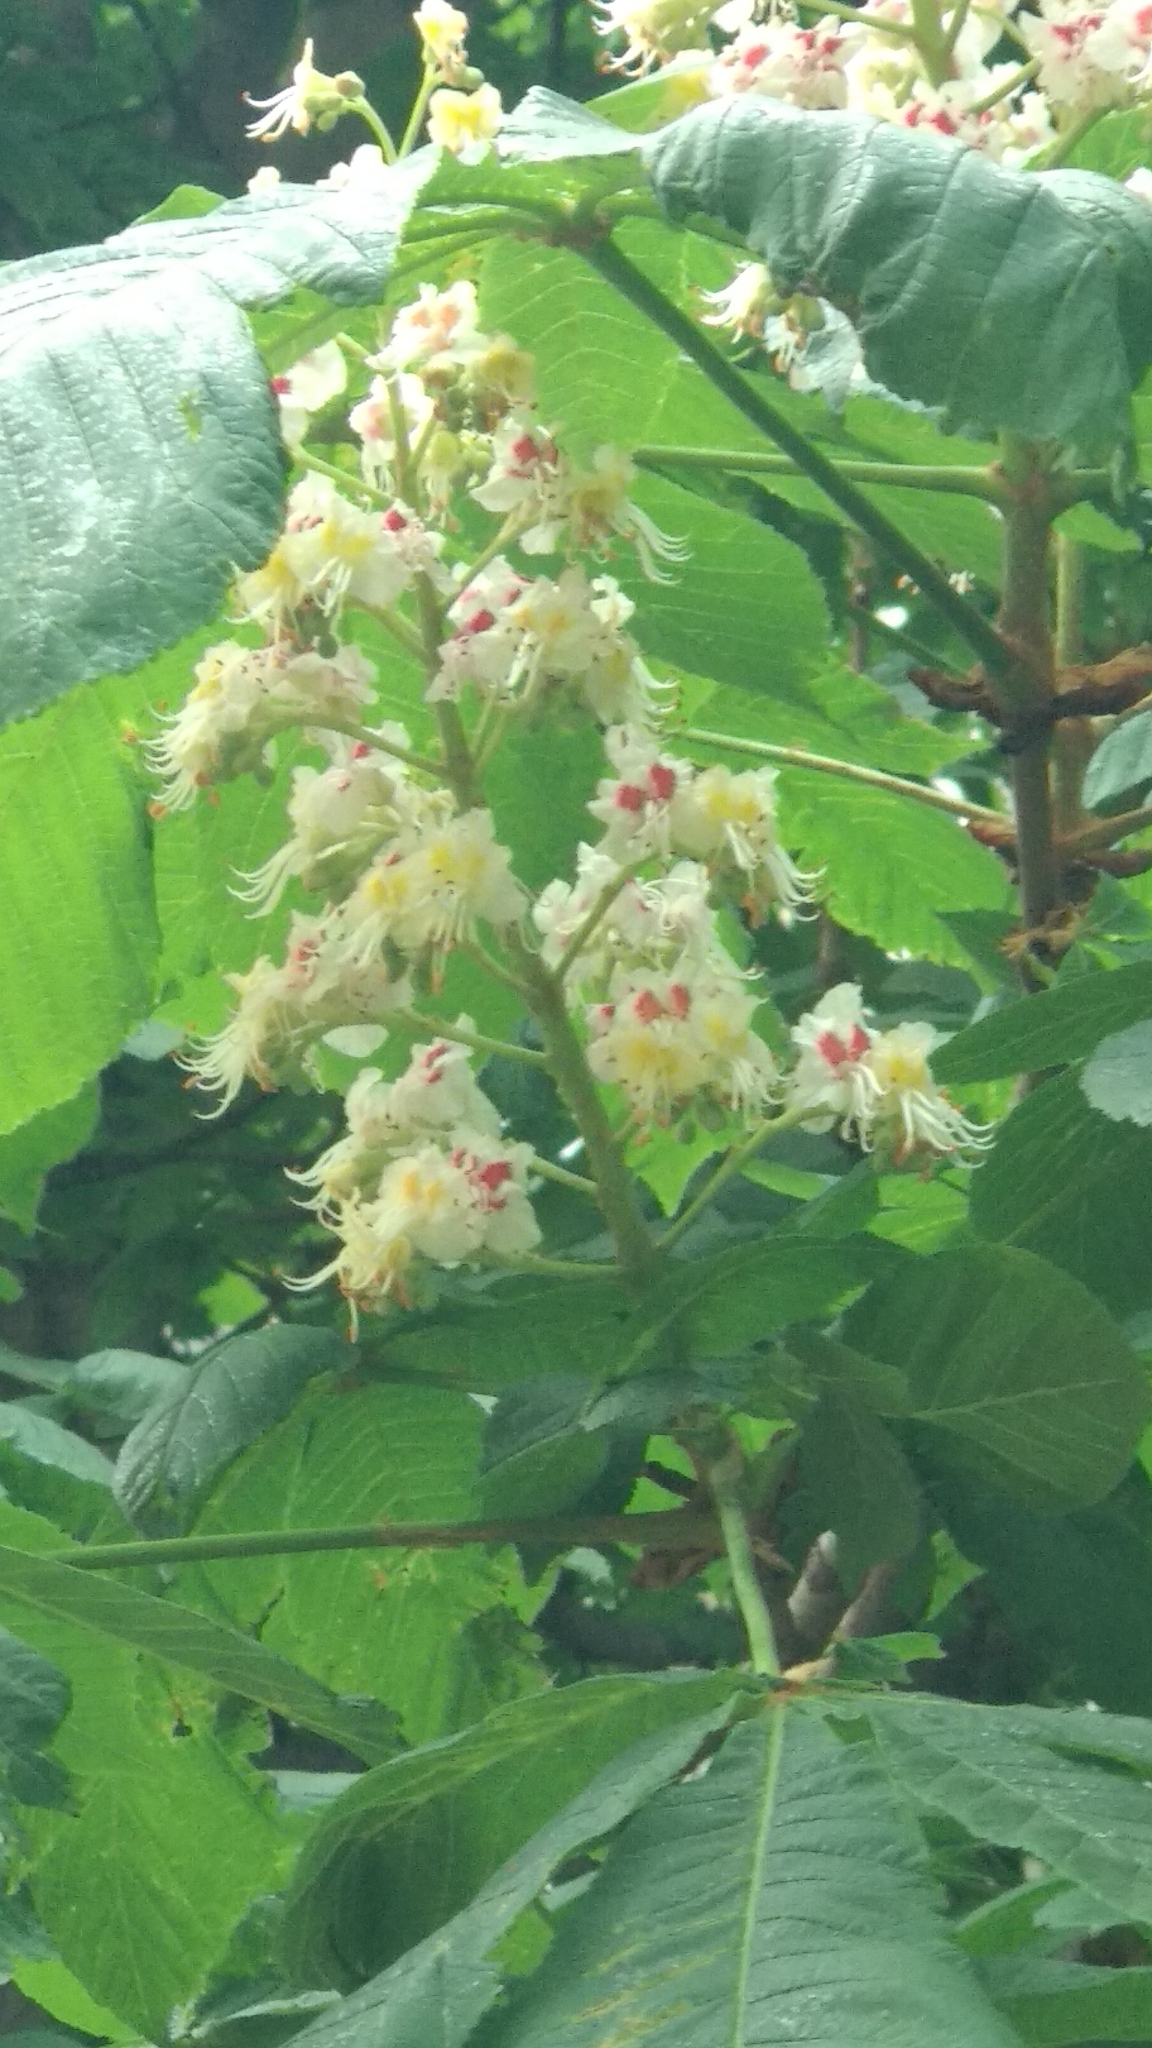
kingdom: Plantae
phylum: Tracheophyta
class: Magnoliopsida
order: Sapindales
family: Sapindaceae
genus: Aesculus
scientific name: Aesculus hippocastanum
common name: Horse-chestnut
